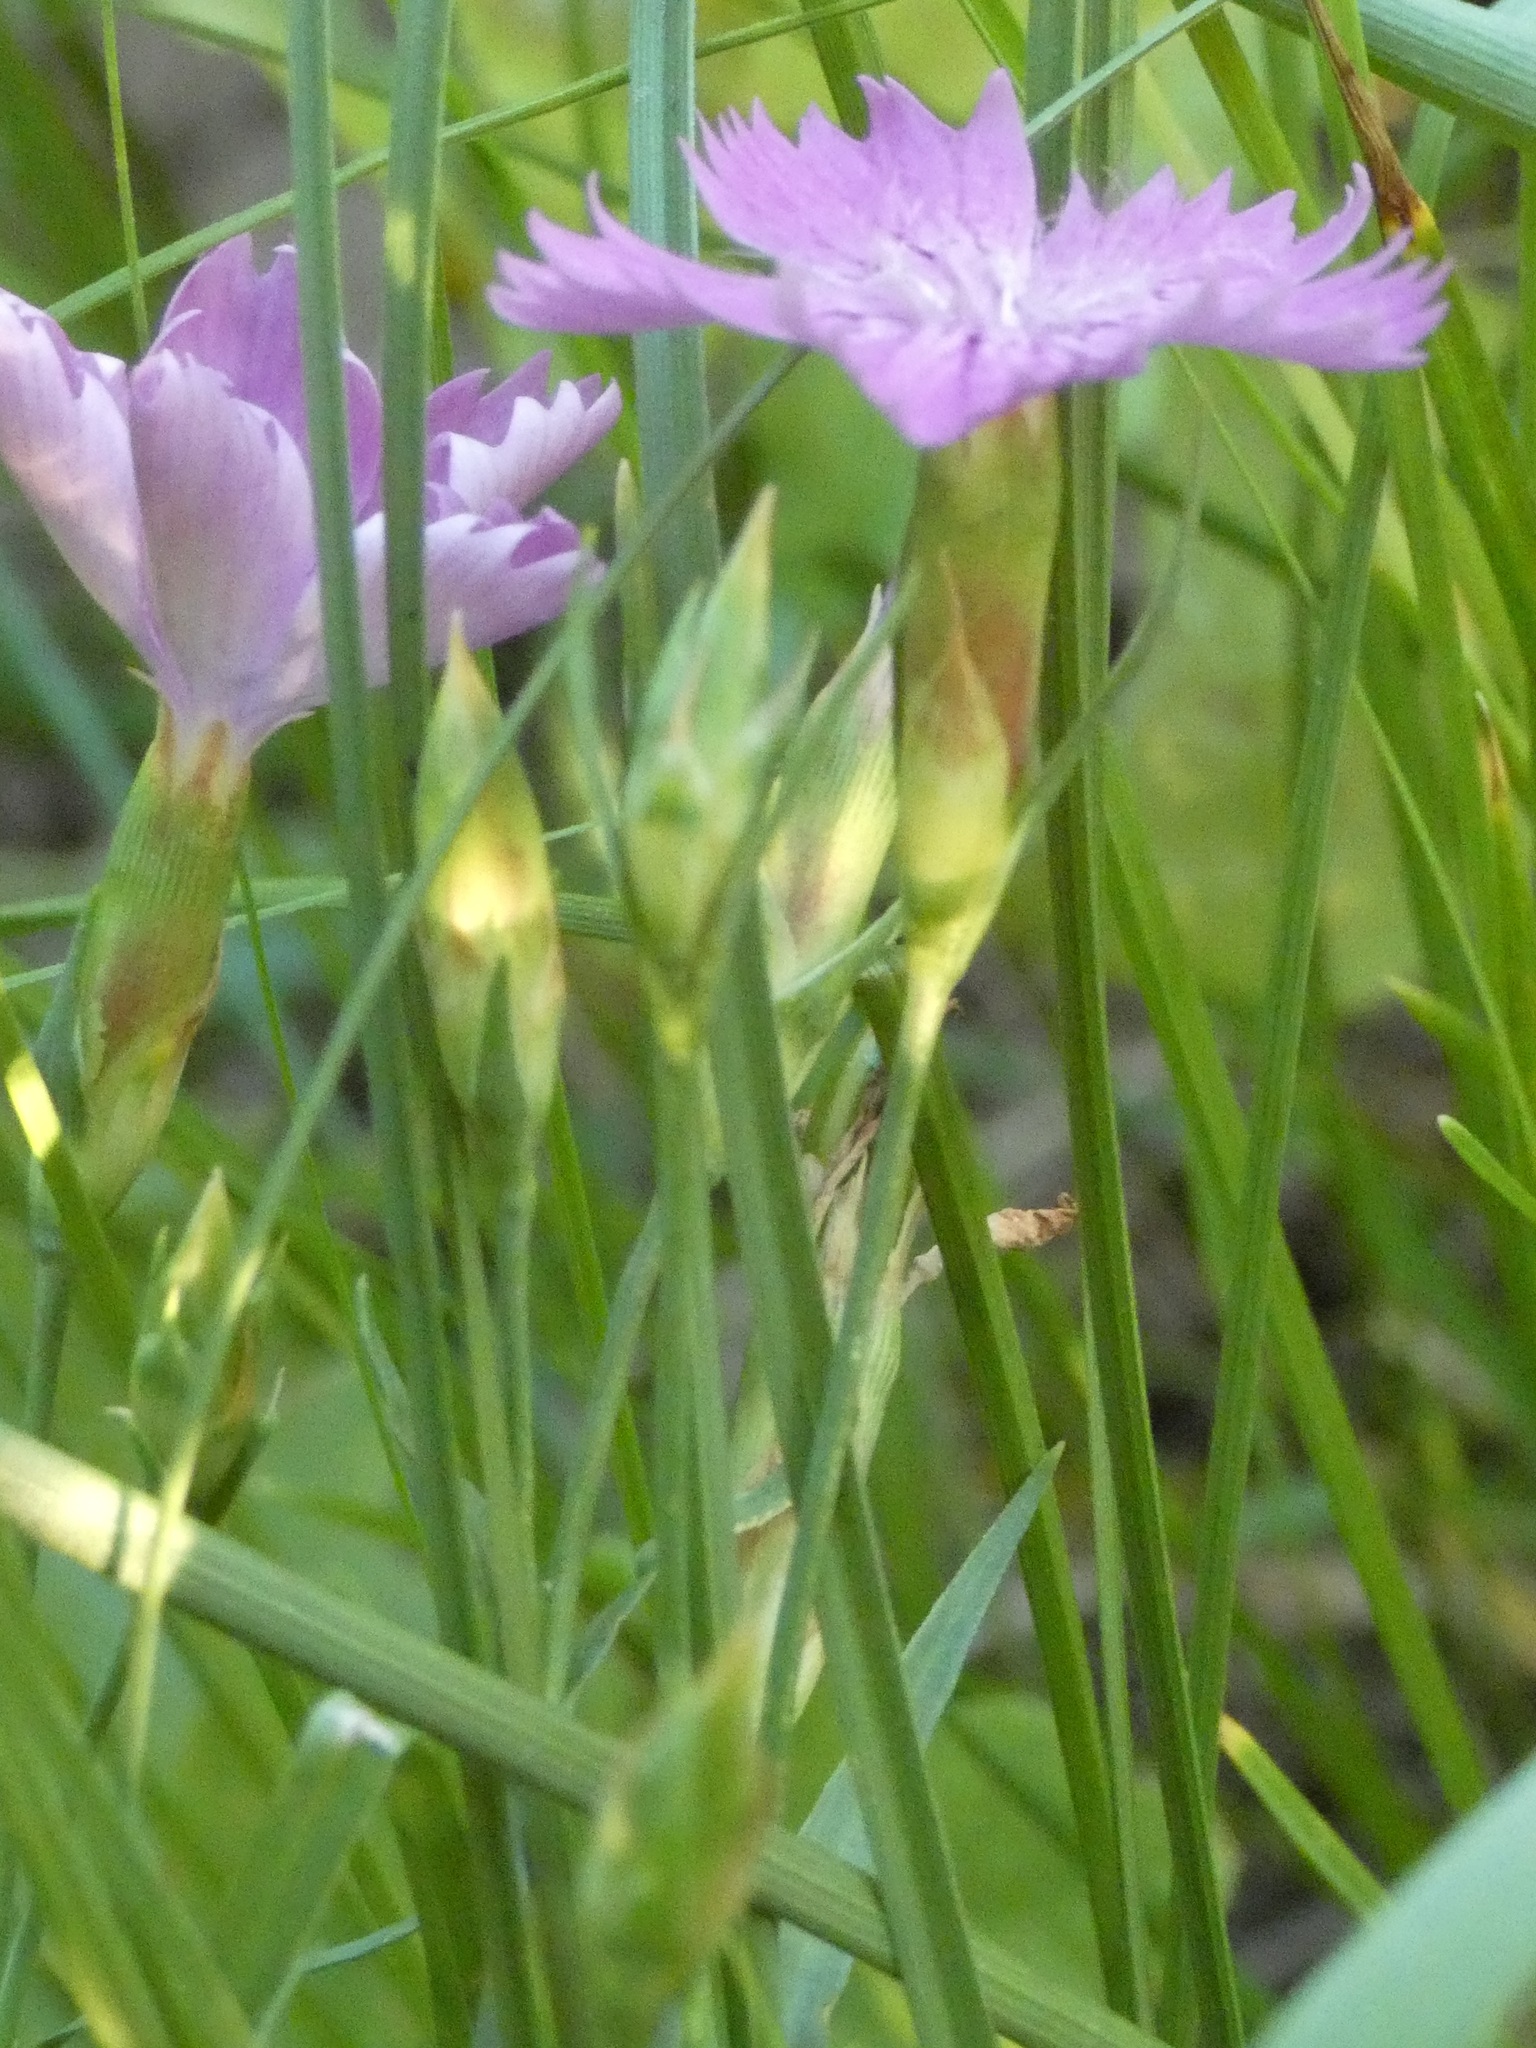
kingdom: Plantae
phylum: Tracheophyta
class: Magnoliopsida
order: Caryophyllales
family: Caryophyllaceae
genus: Dianthus
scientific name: Dianthus chinensis
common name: Rainbow pink
